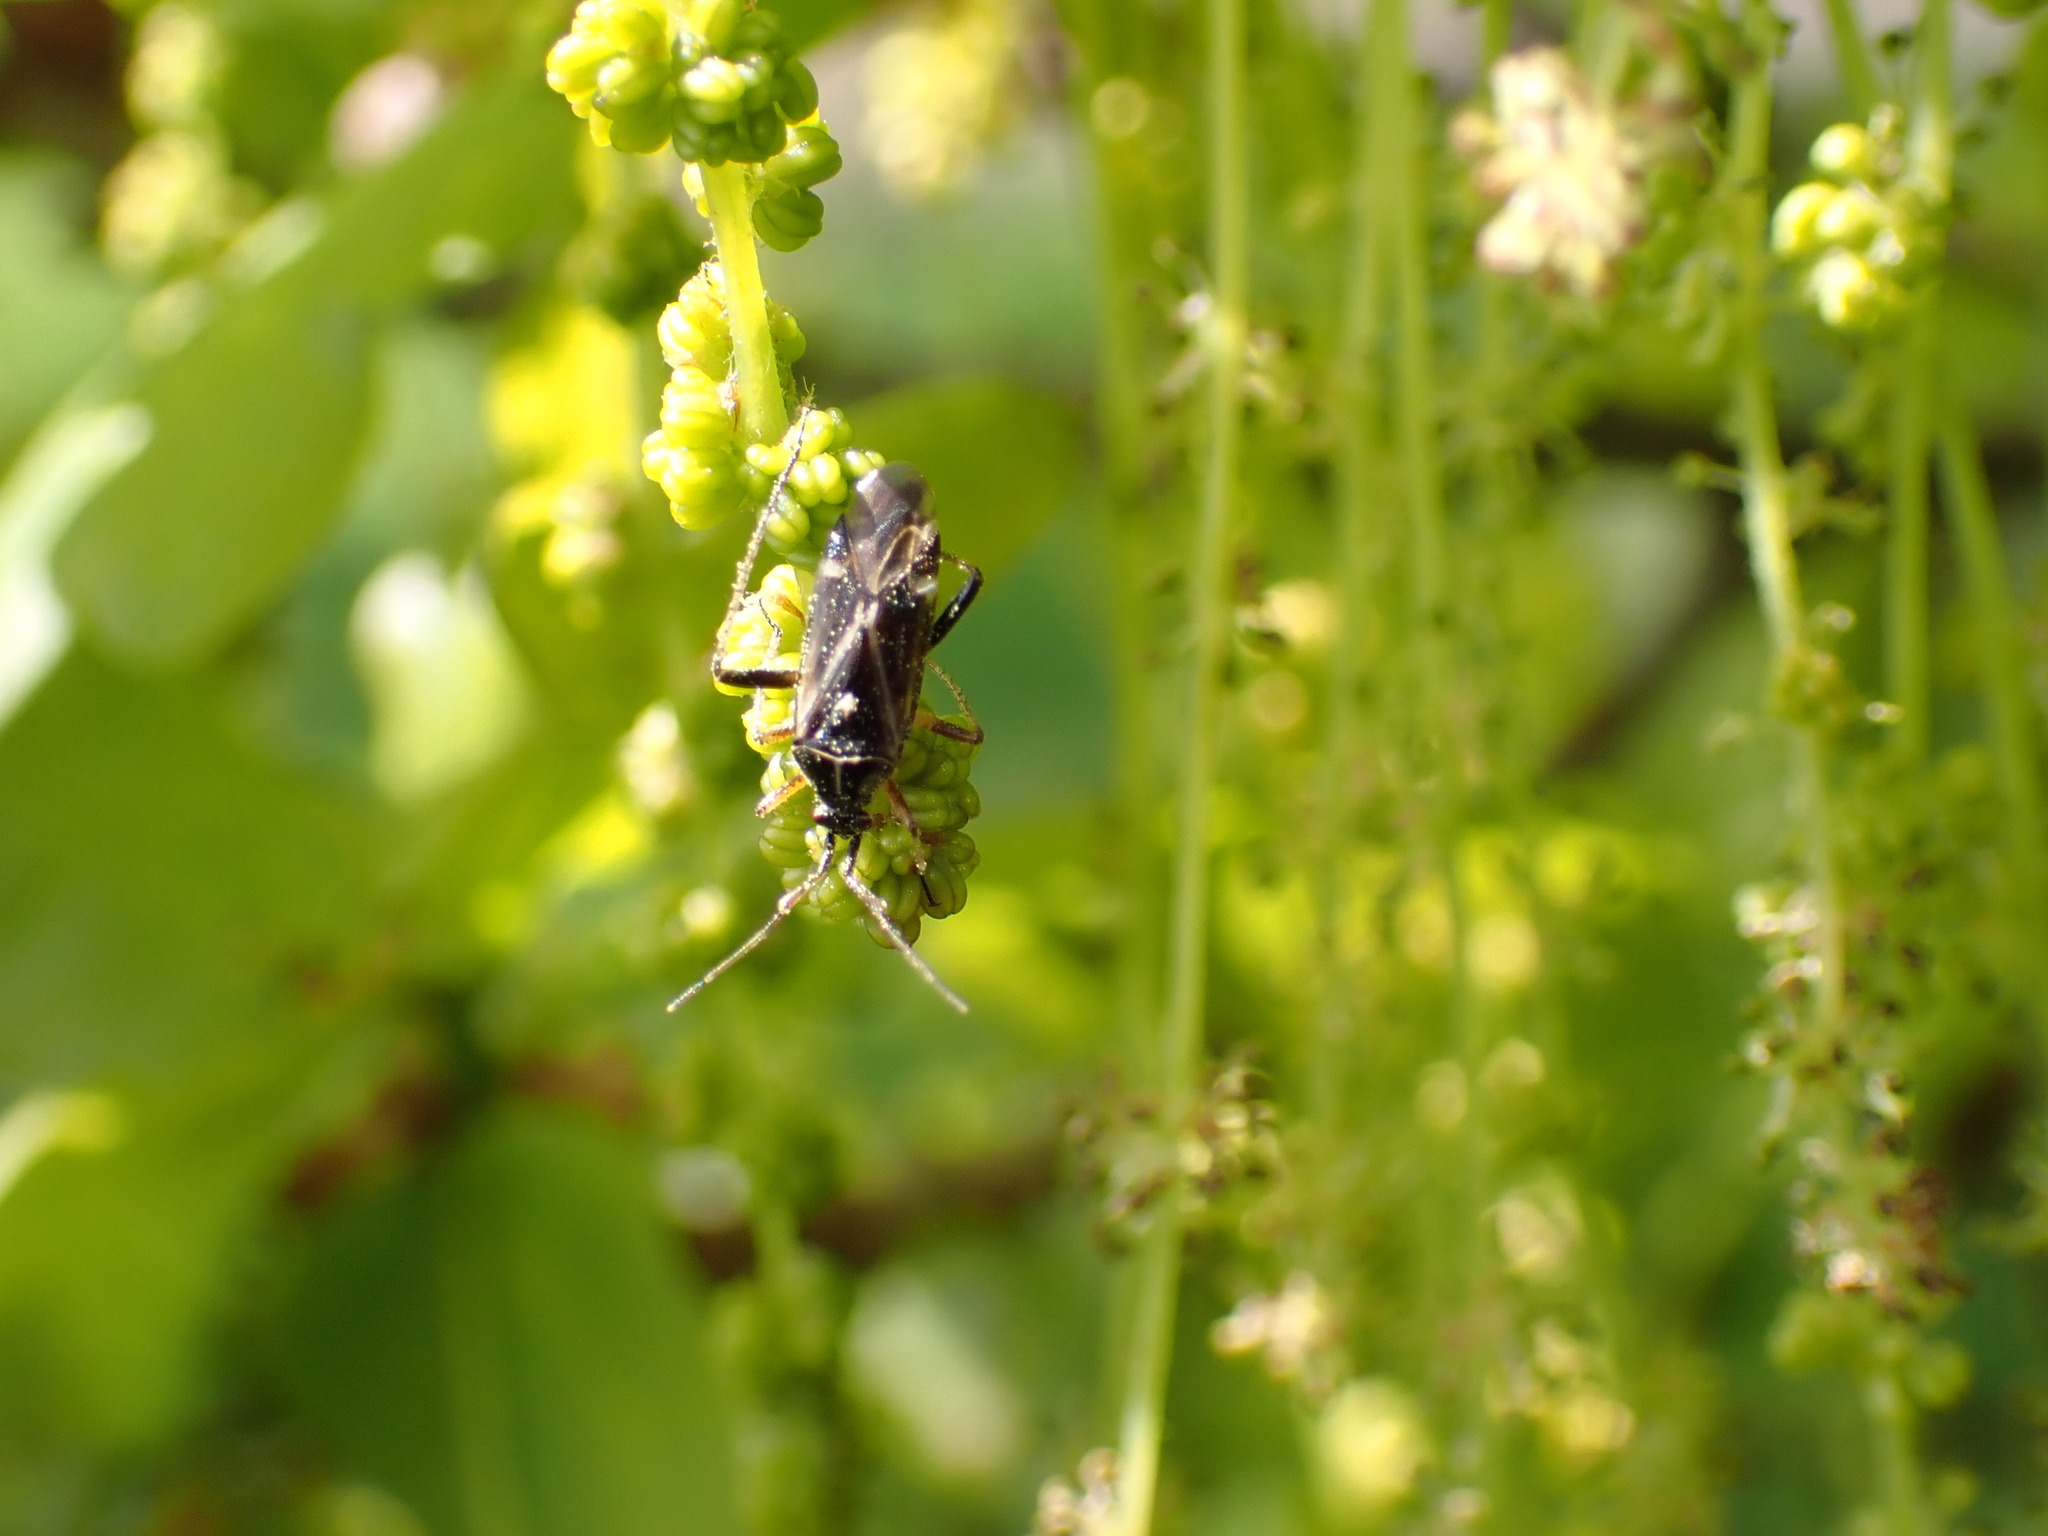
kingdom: Animalia
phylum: Arthropoda
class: Insecta
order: Hemiptera
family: Miridae
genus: Harpocera
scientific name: Harpocera thoracica
